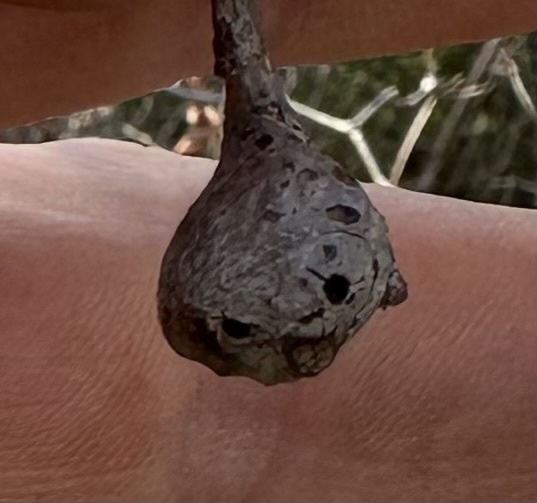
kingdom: Animalia
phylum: Arthropoda
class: Insecta
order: Hymenoptera
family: Cynipidae
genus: Callirhytis
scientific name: Callirhytis clavula
